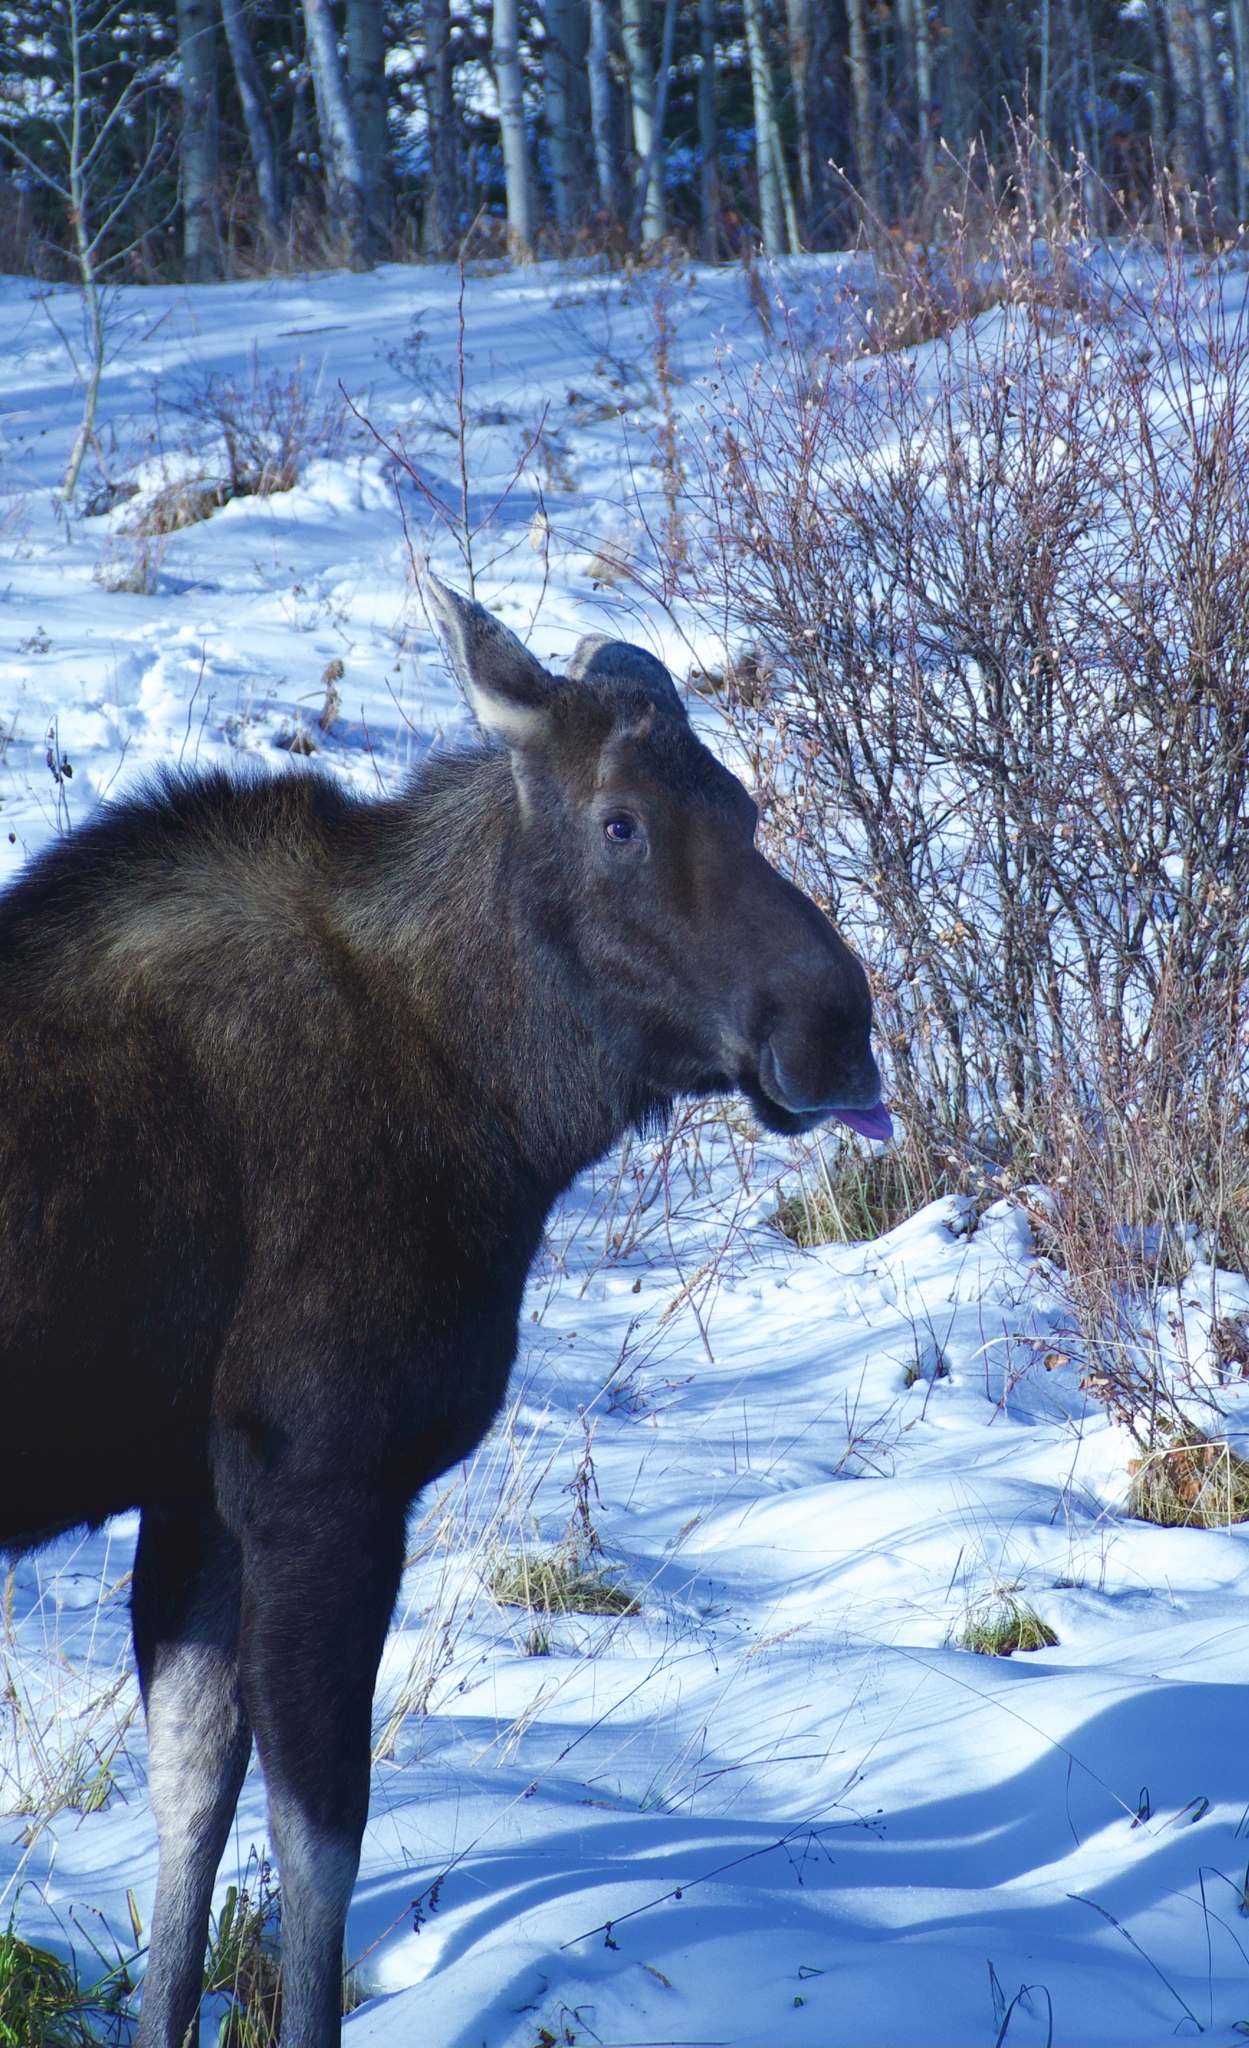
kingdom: Animalia
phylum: Chordata
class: Mammalia
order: Artiodactyla
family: Cervidae
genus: Alces
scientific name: Alces alces
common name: Moose
